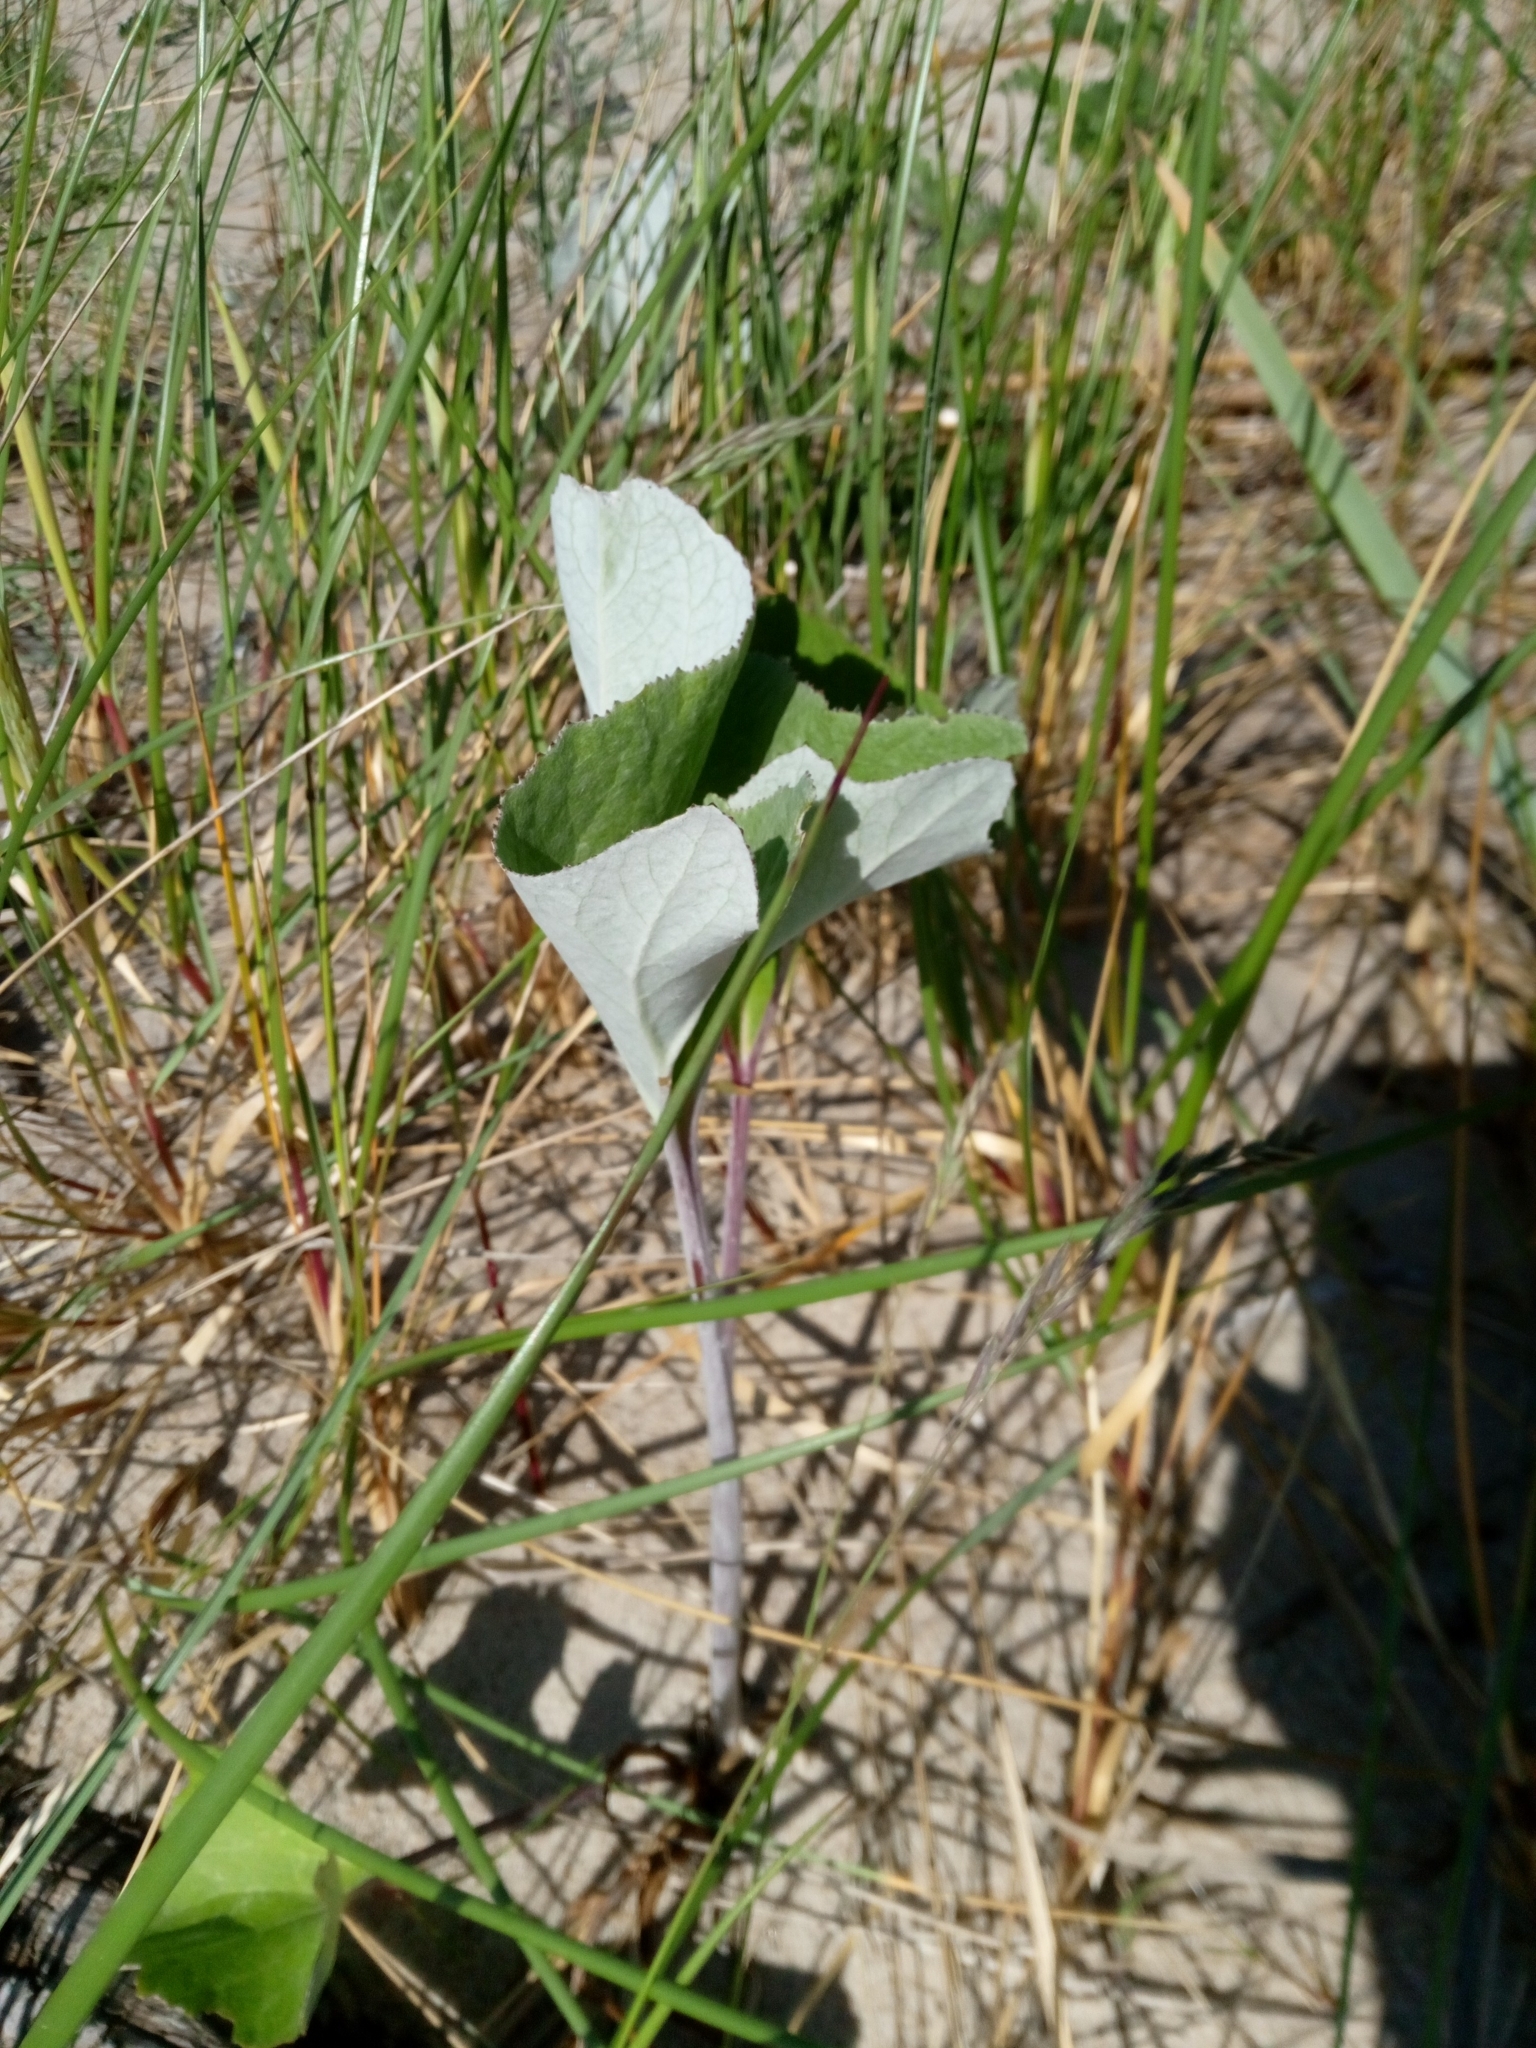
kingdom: Plantae
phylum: Tracheophyta
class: Magnoliopsida
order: Asterales
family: Asteraceae
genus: Petasites
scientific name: Petasites spurius
